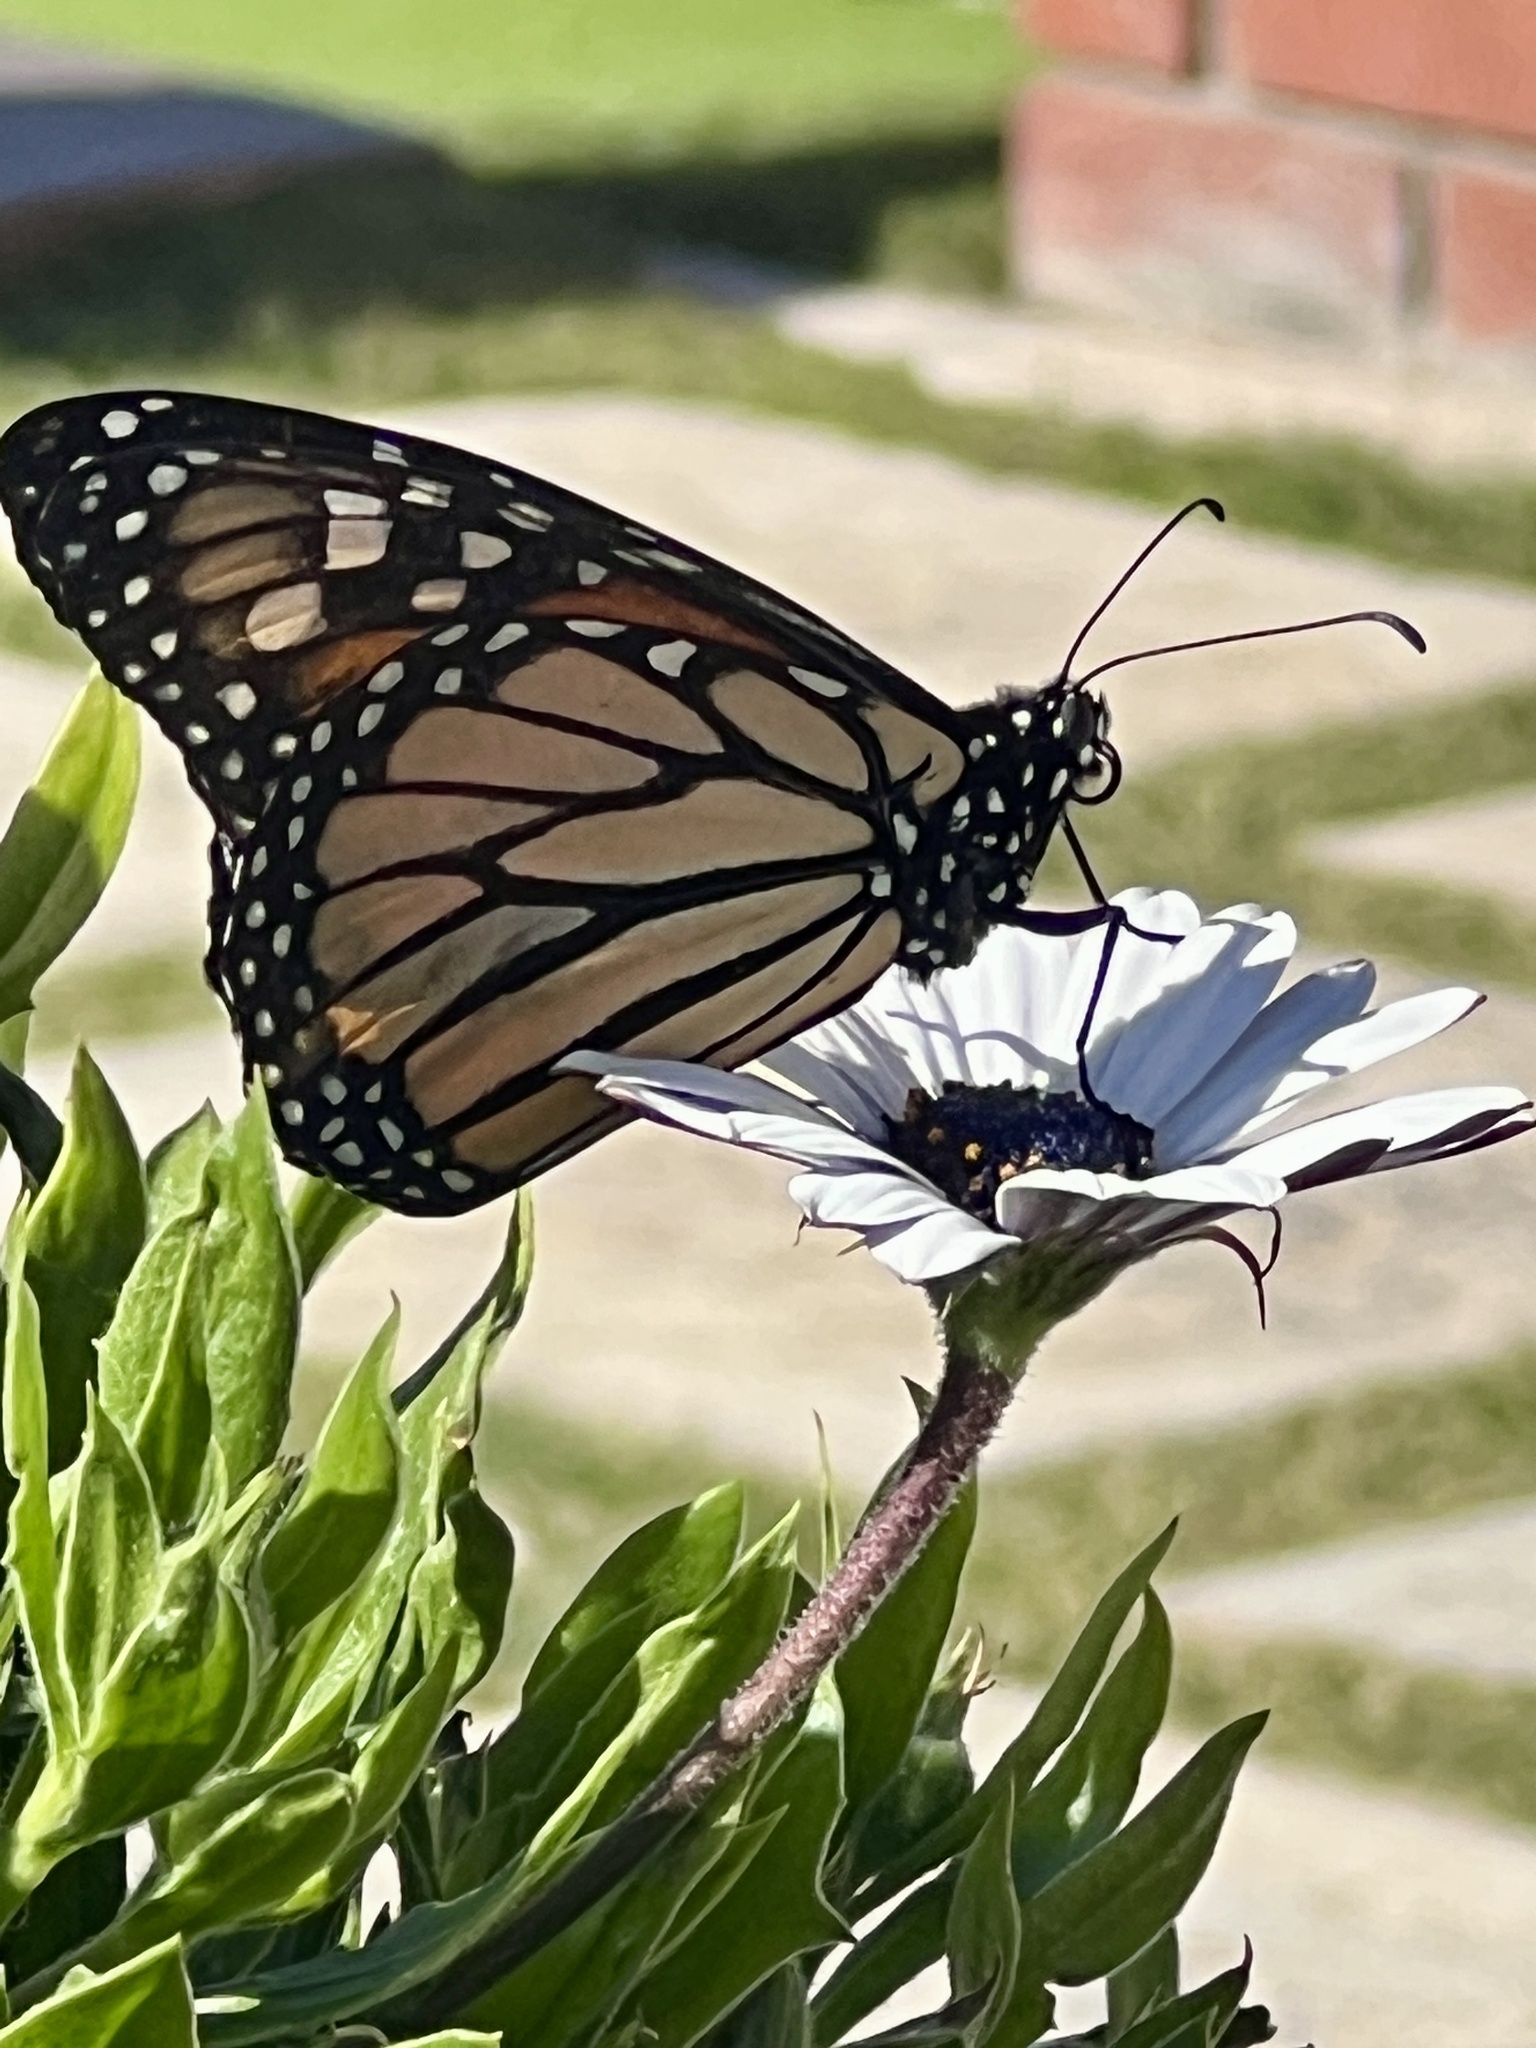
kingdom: Animalia
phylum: Arthropoda
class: Insecta
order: Lepidoptera
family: Nymphalidae
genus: Danaus
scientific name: Danaus plexippus
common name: Monarch
